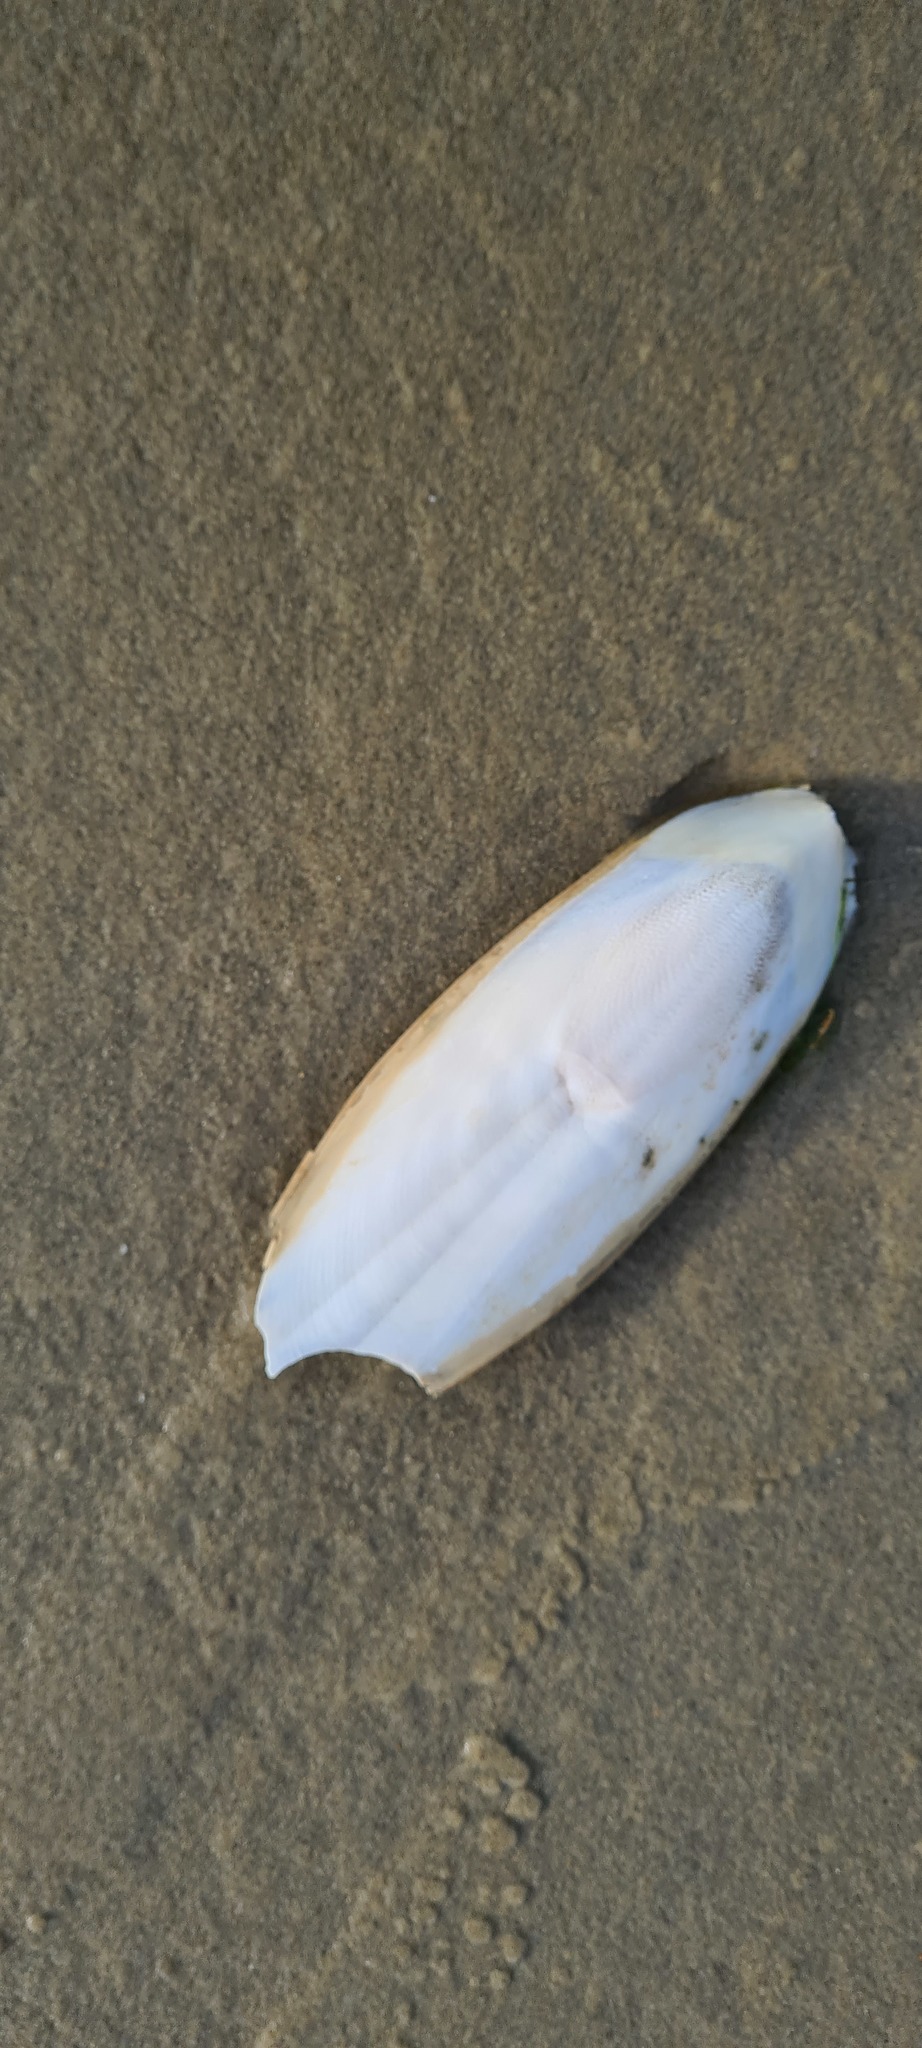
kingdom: Animalia
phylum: Mollusca
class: Cephalopoda
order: Sepiida
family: Sepiidae
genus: Sepia
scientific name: Sepia officinalis
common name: Common cuttlefish
